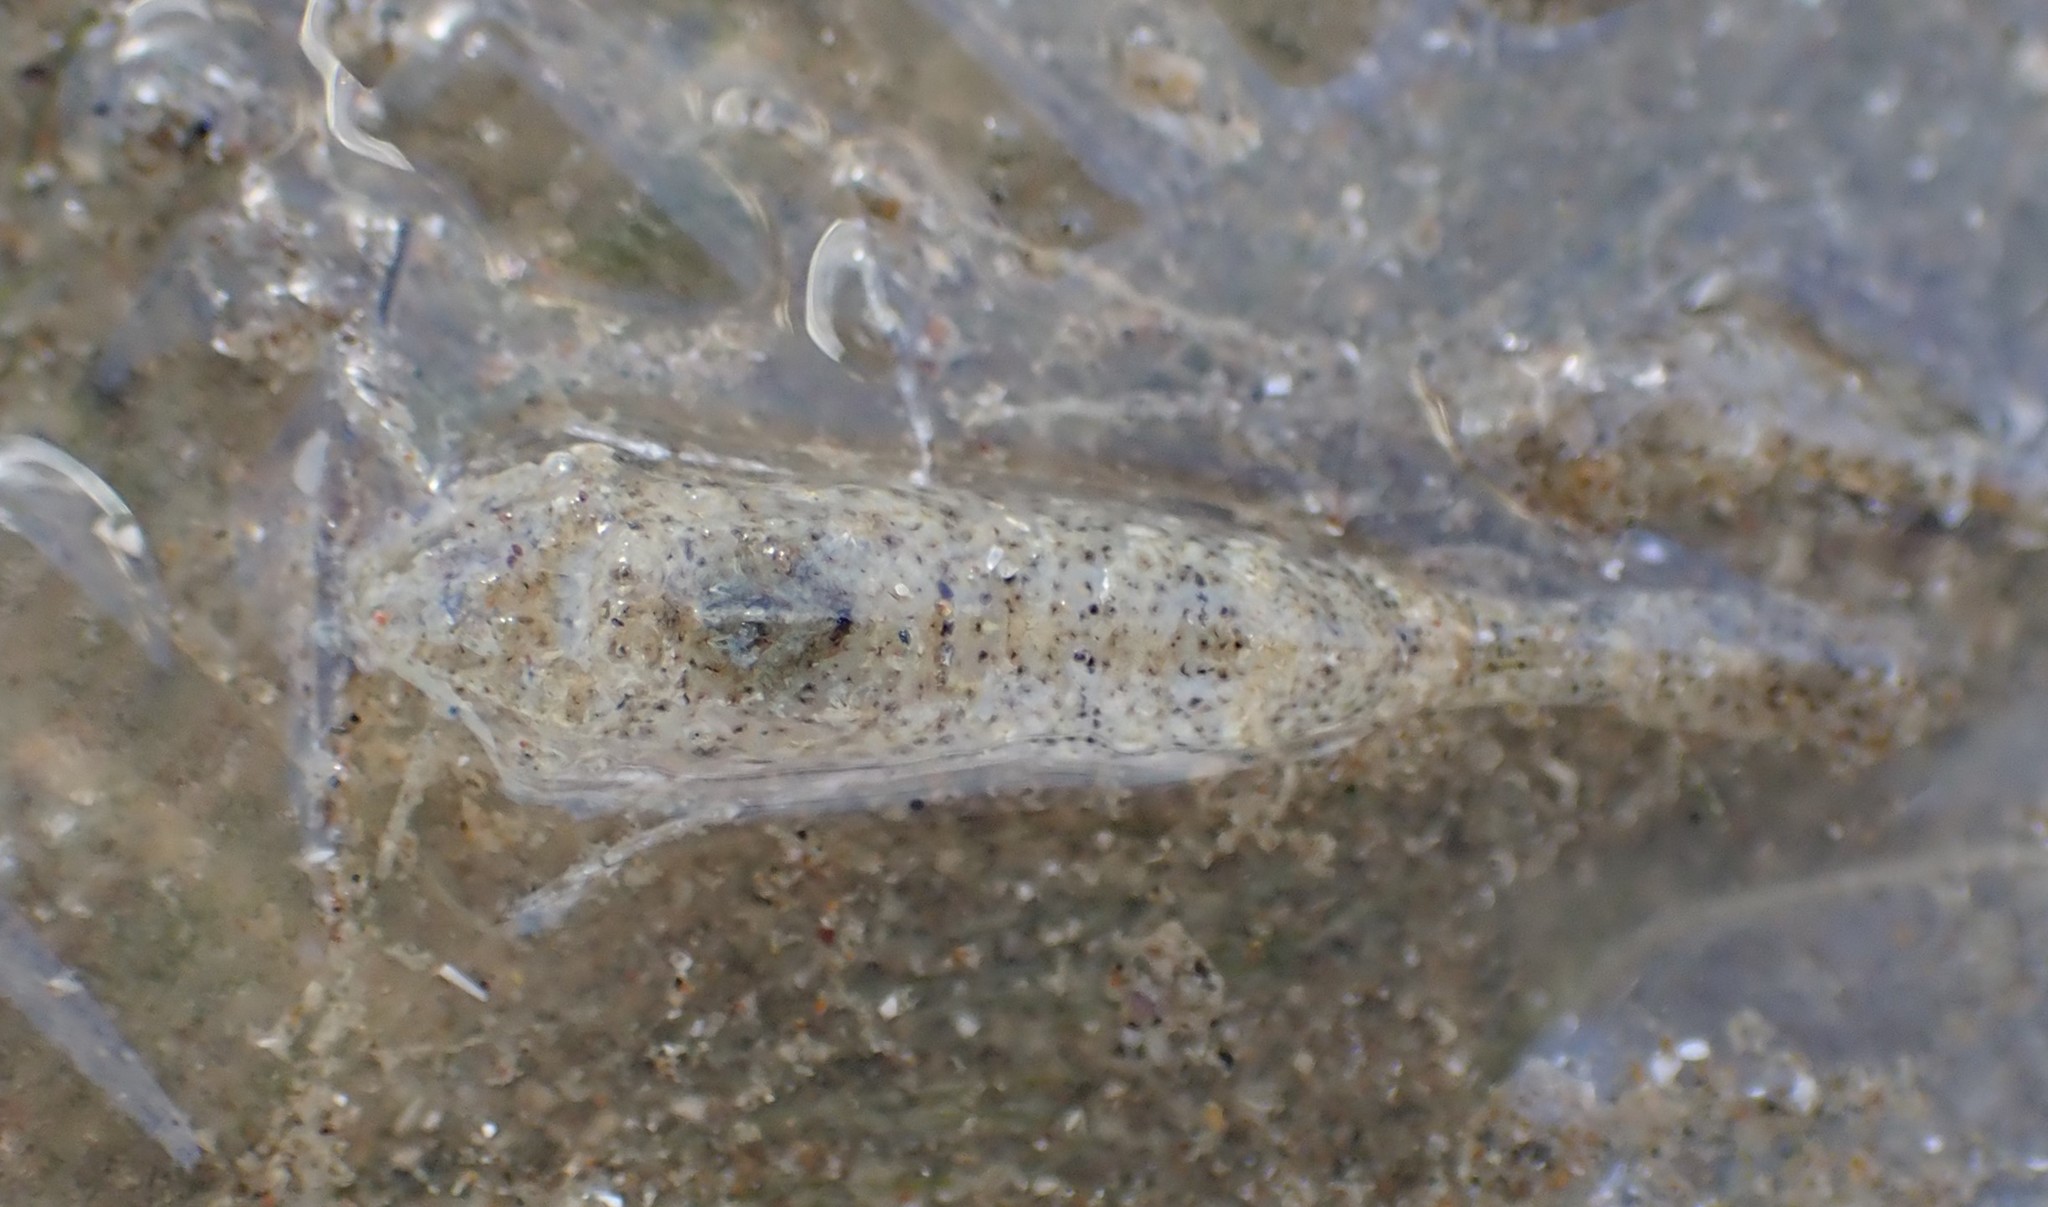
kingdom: Animalia
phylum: Arthropoda
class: Malacostraca
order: Decapoda
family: Crangonidae
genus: Philocheras
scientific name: Philocheras australis
